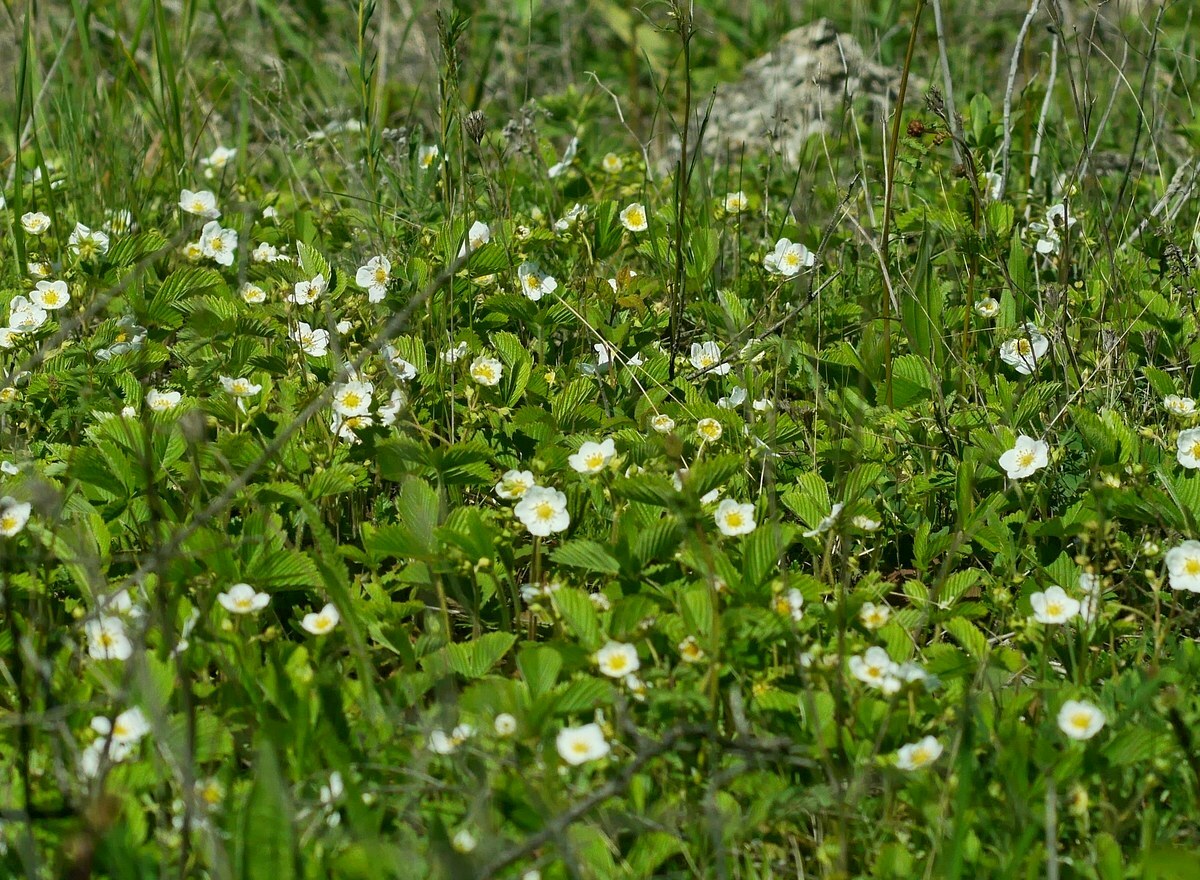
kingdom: Plantae
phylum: Tracheophyta
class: Magnoliopsida
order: Rosales
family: Rosaceae
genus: Fragaria
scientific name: Fragaria viridis
